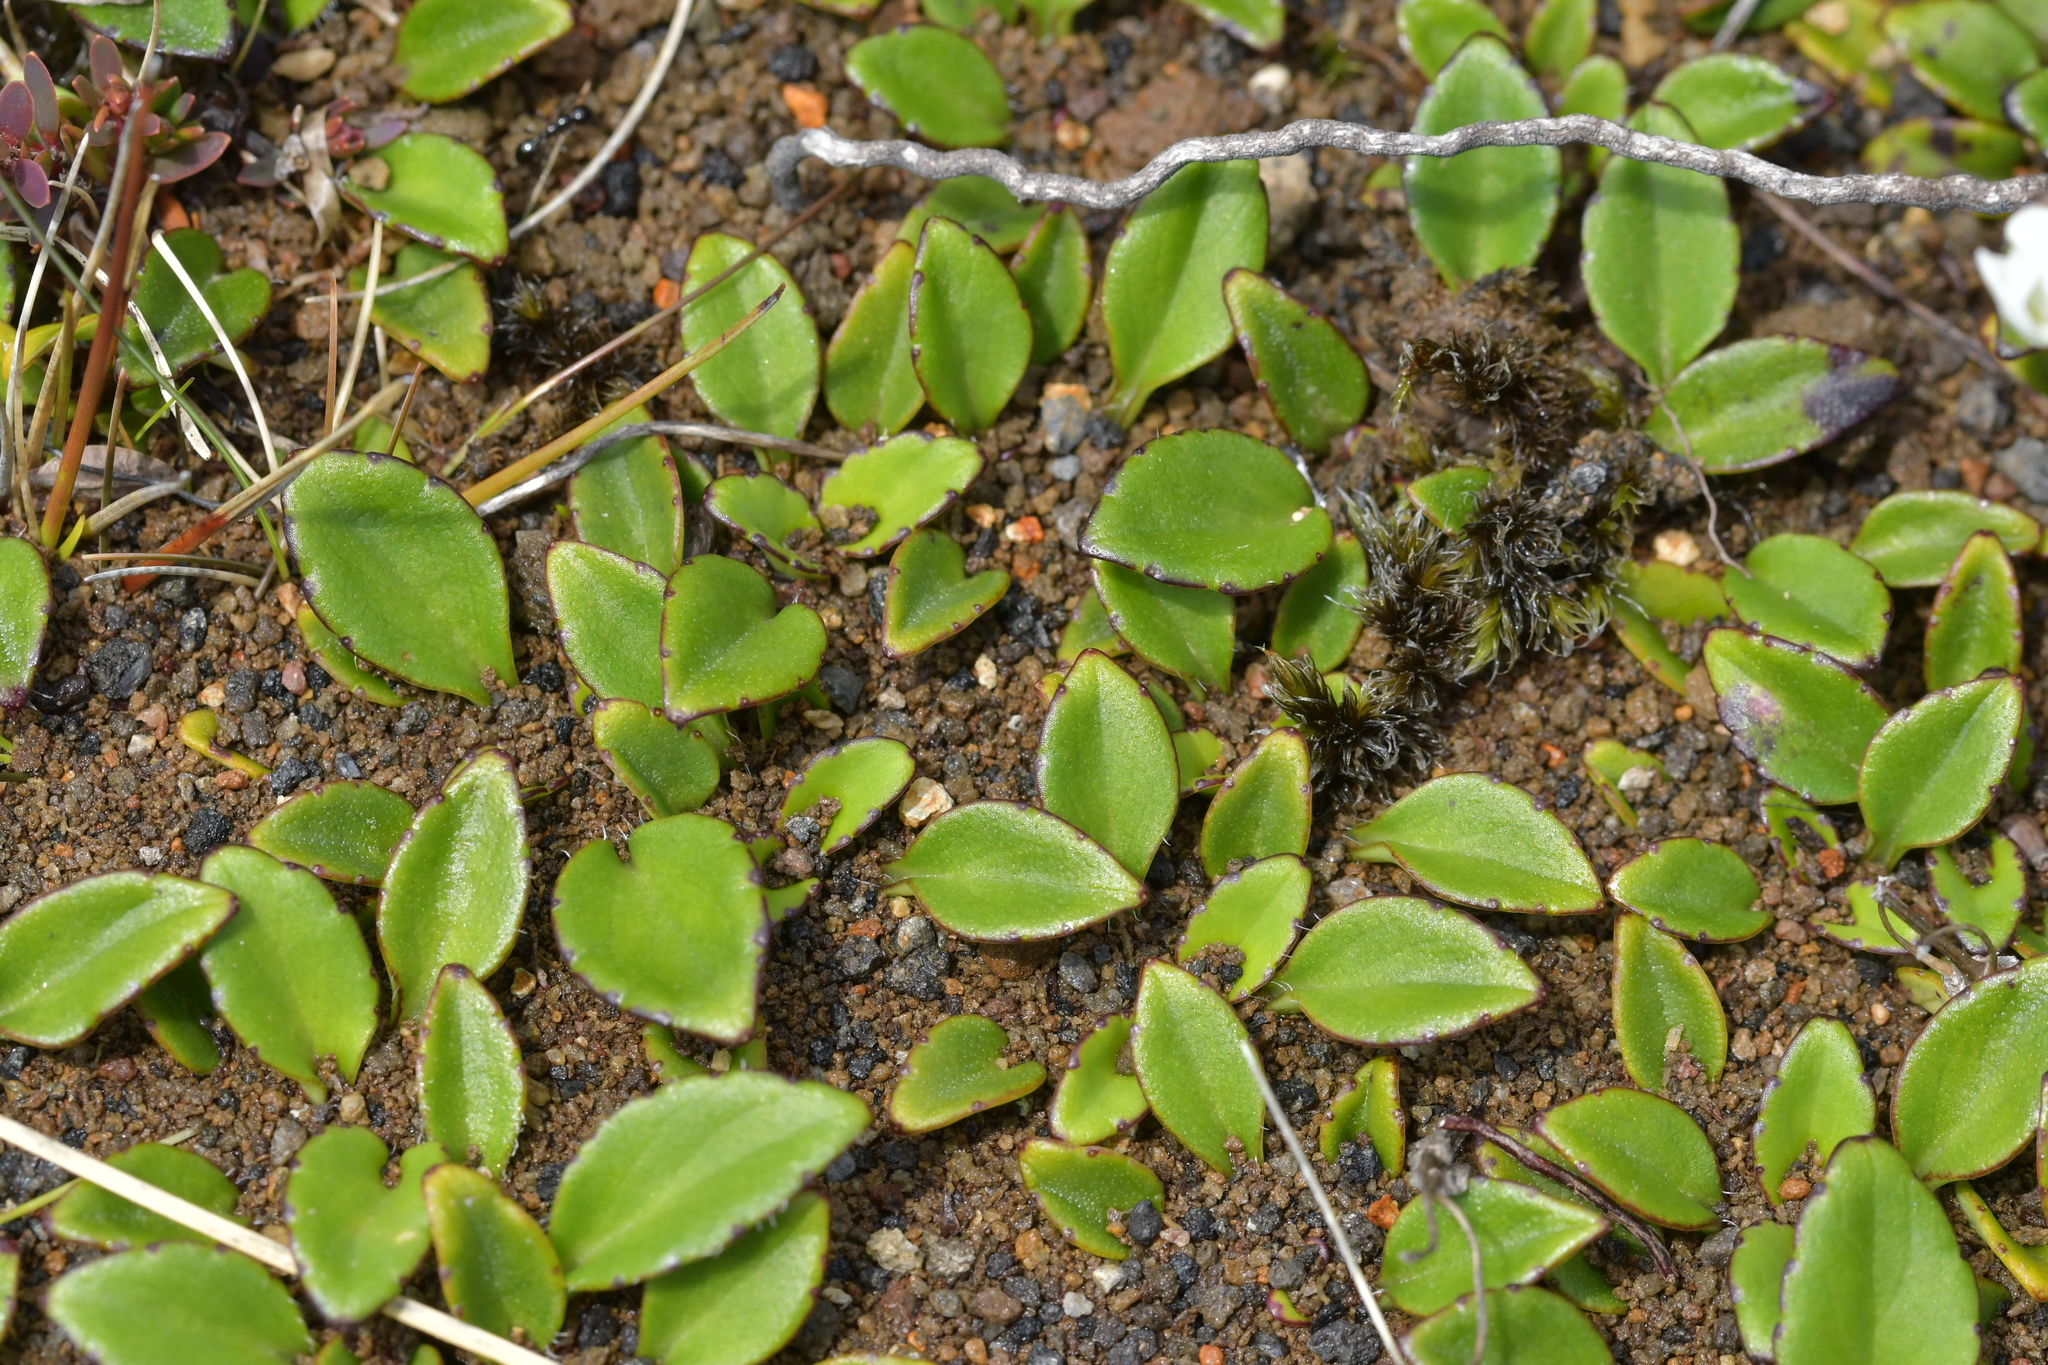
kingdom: Plantae
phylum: Tracheophyta
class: Magnoliopsida
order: Lamiales
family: Plantaginaceae
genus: Ourisia
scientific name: Ourisia vulcanica
